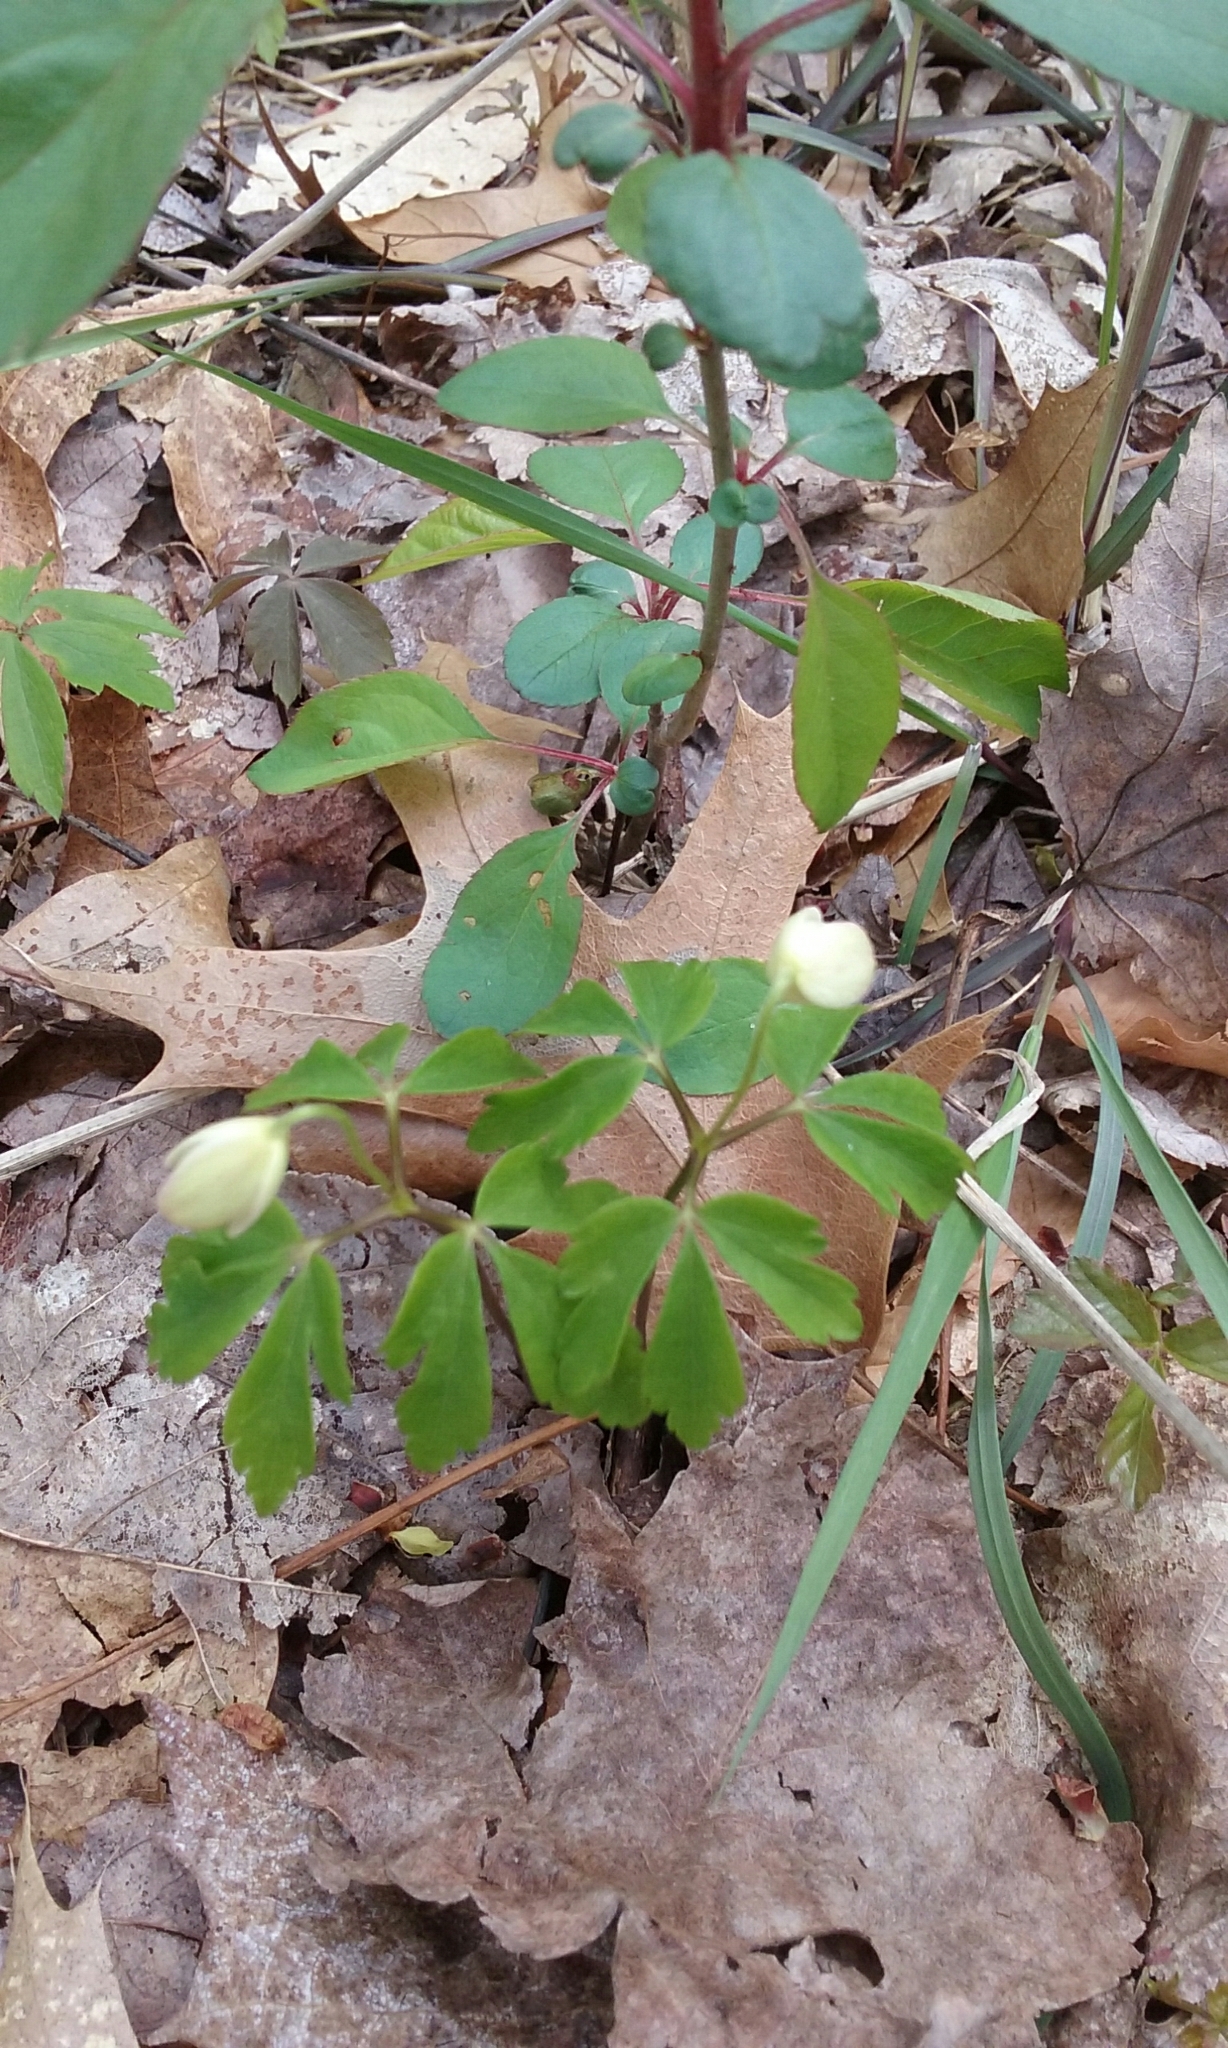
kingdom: Plantae
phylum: Tracheophyta
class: Magnoliopsida
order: Ranunculales
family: Ranunculaceae
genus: Anemone
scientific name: Anemone quinquefolia
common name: Wood anemone
